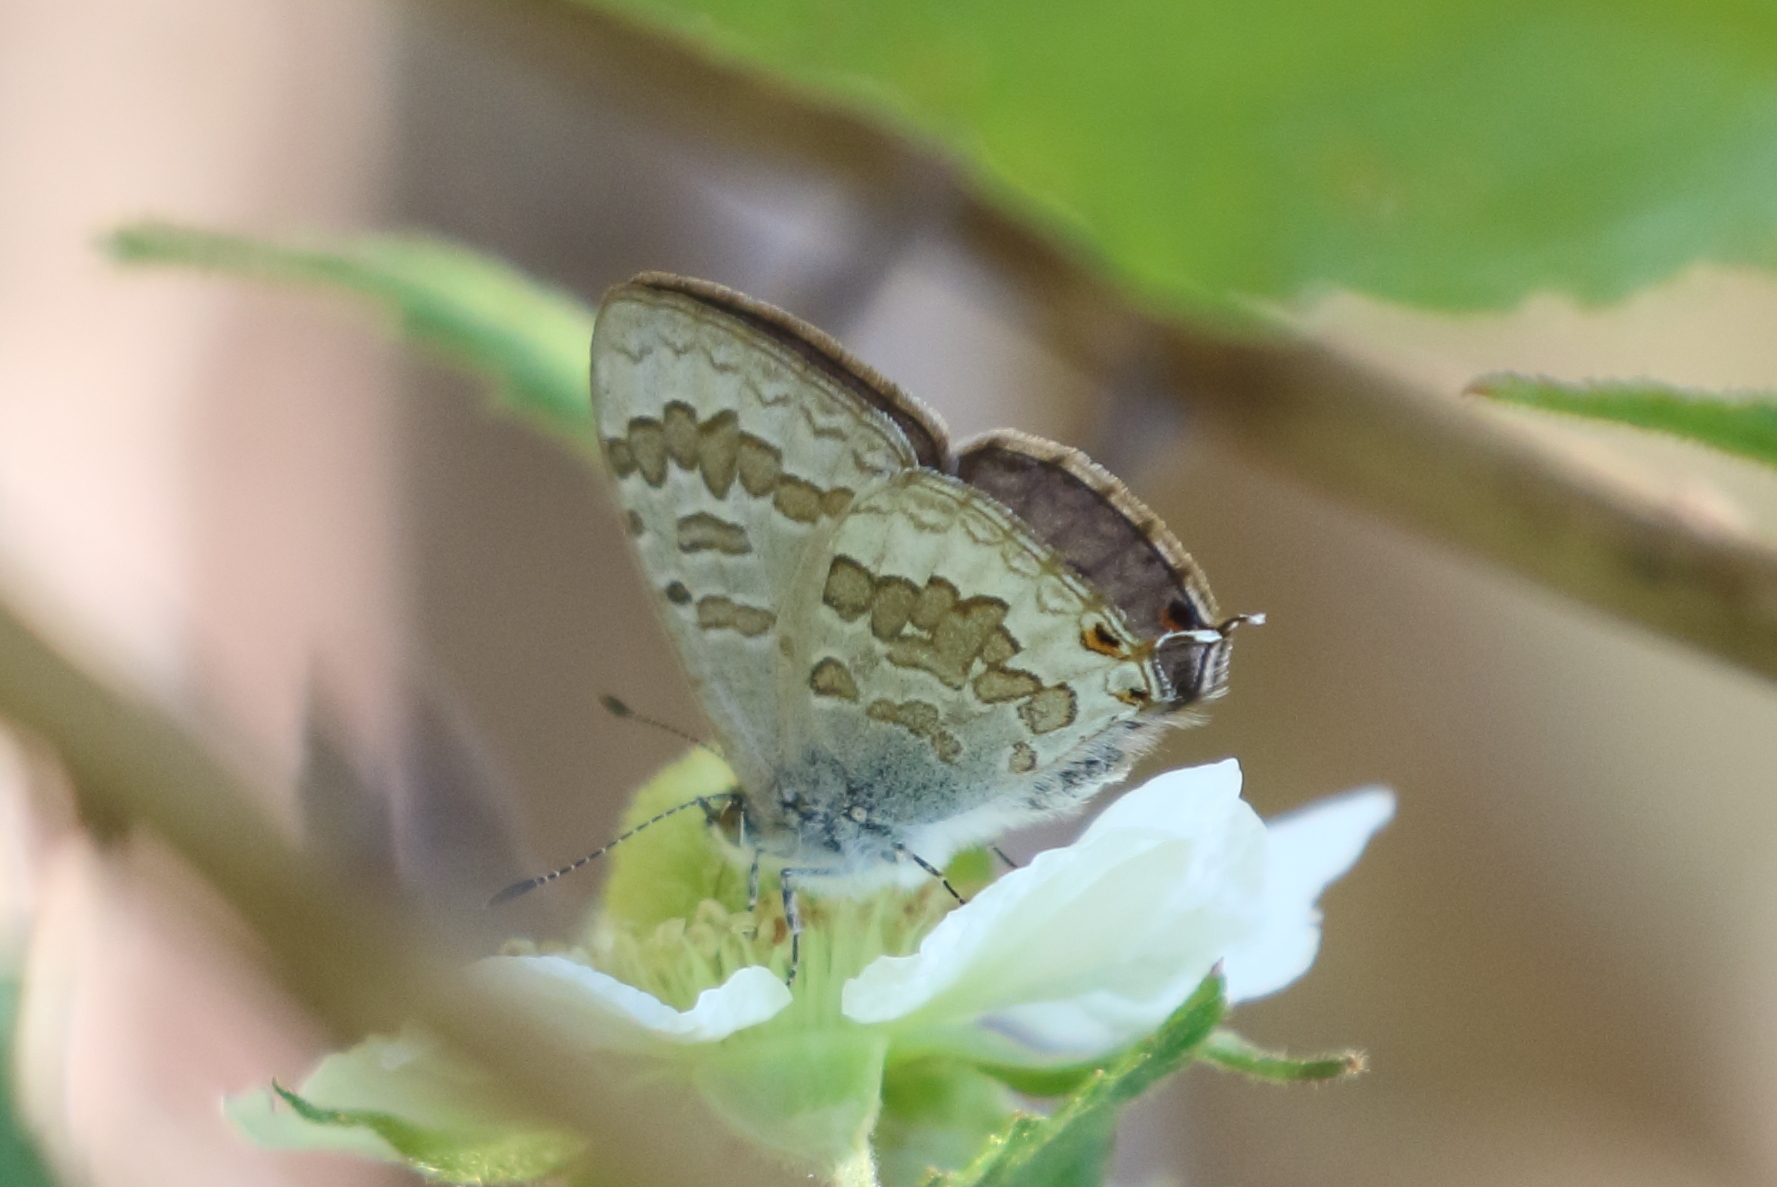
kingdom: Animalia
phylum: Arthropoda
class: Insecta
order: Lepidoptera
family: Lycaenidae
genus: Catopyrops
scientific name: Catopyrops florinda
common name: Speckled line-blue
